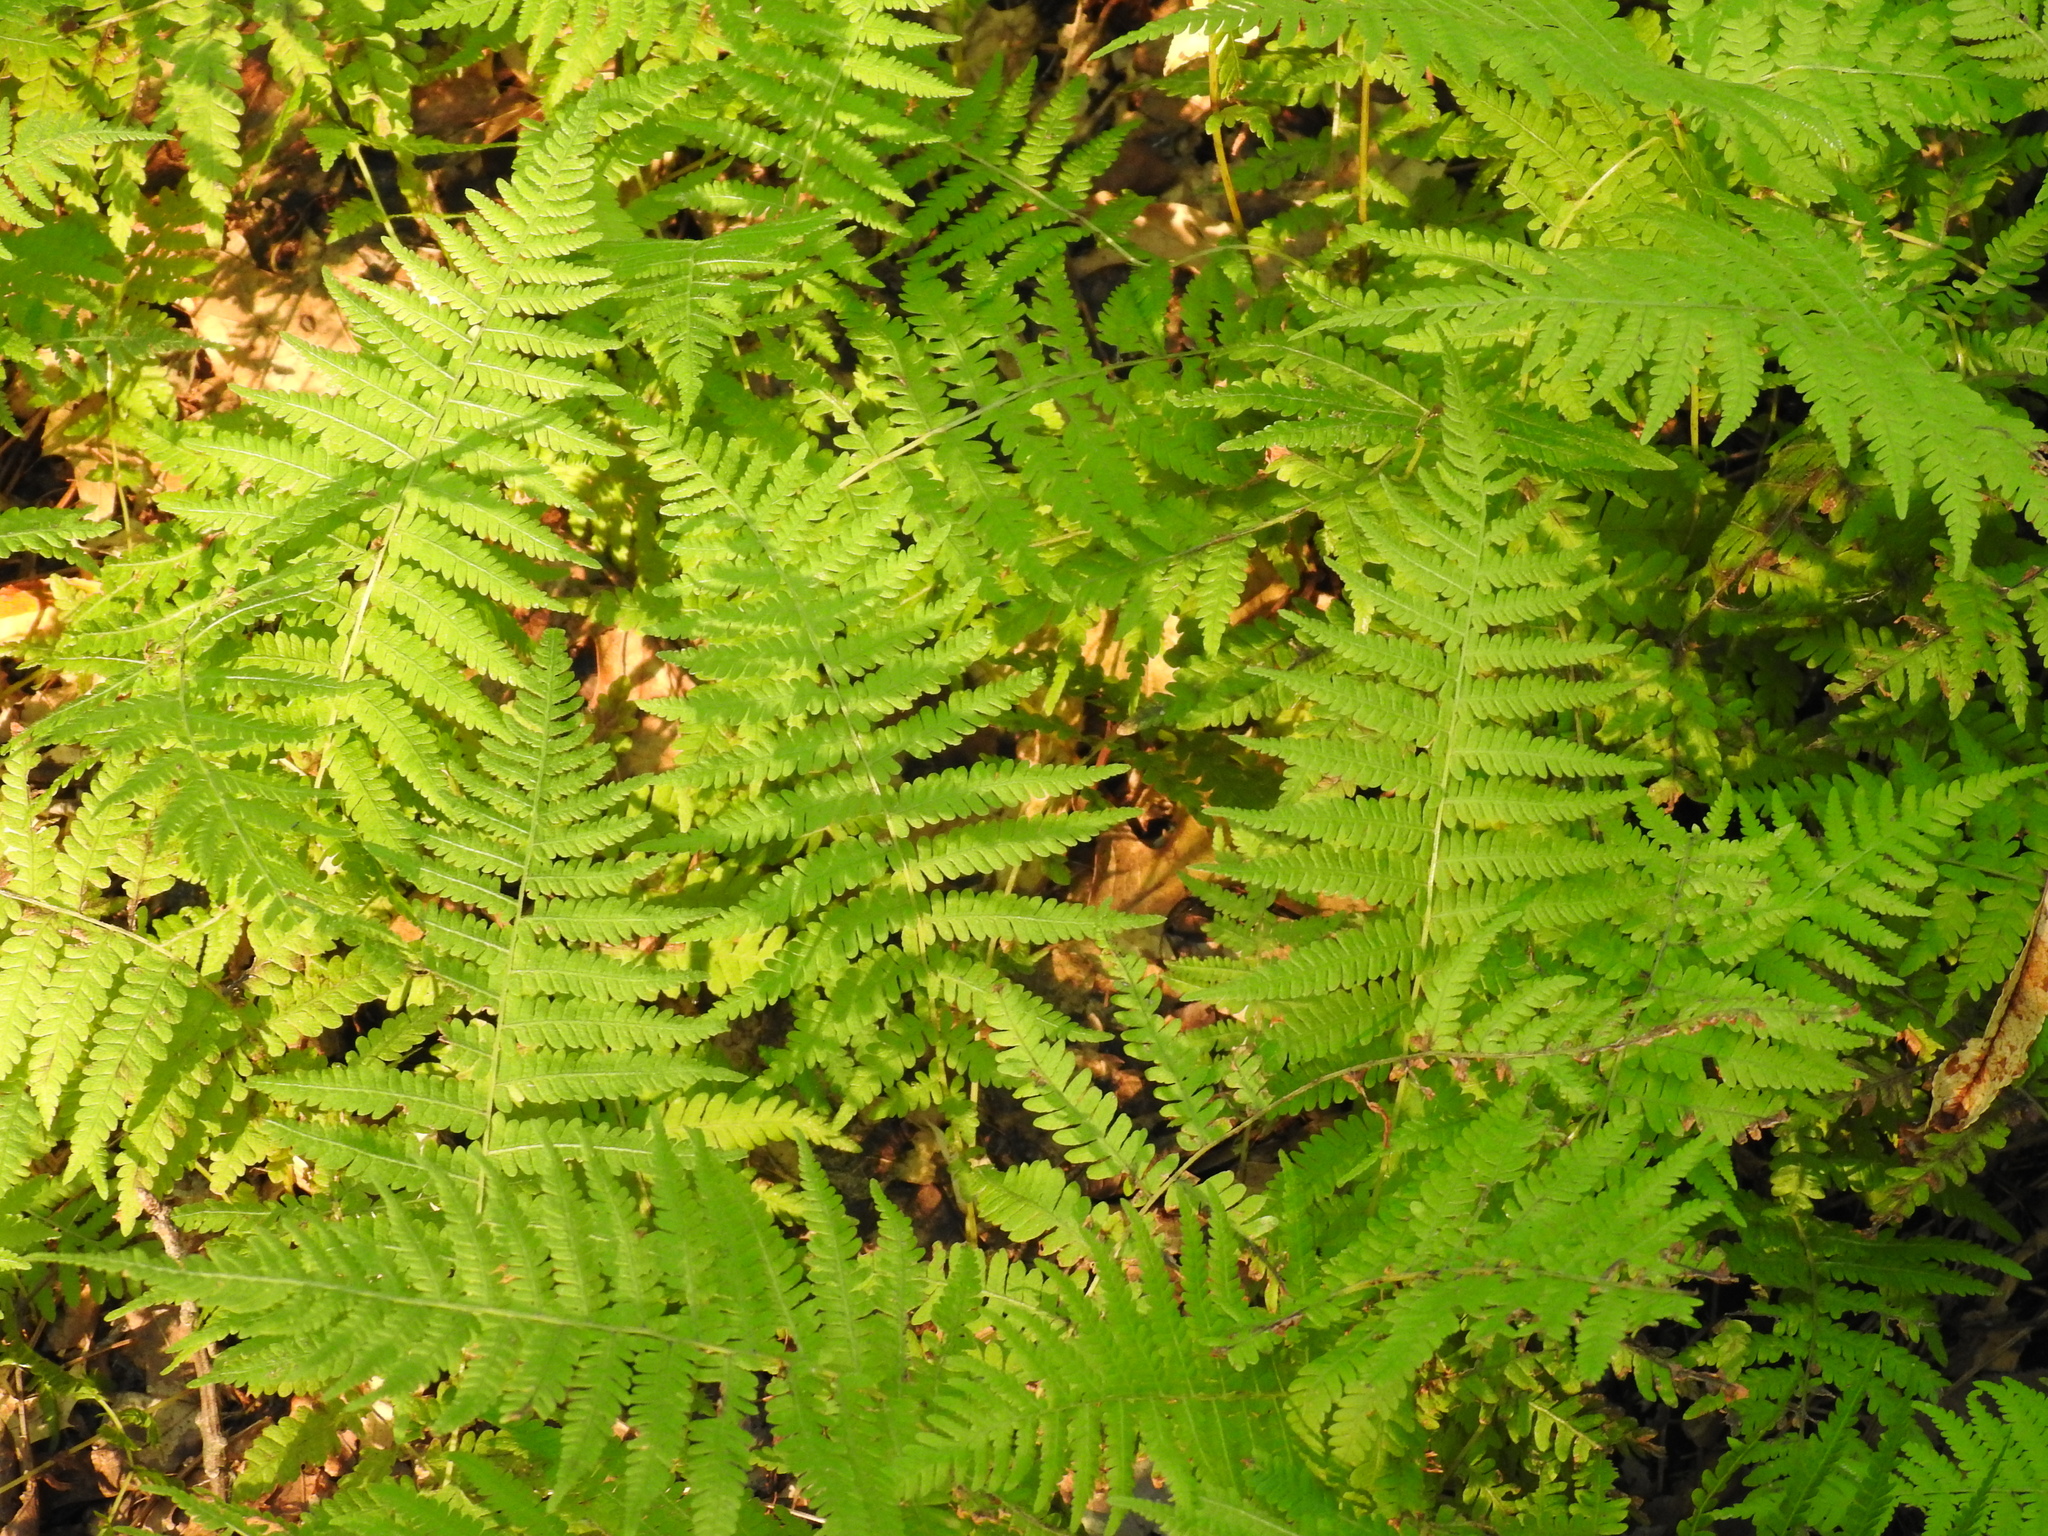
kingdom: Plantae
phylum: Tracheophyta
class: Polypodiopsida
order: Polypodiales
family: Thelypteridaceae
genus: Amauropelta
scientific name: Amauropelta noveboracensis
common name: New york fern
